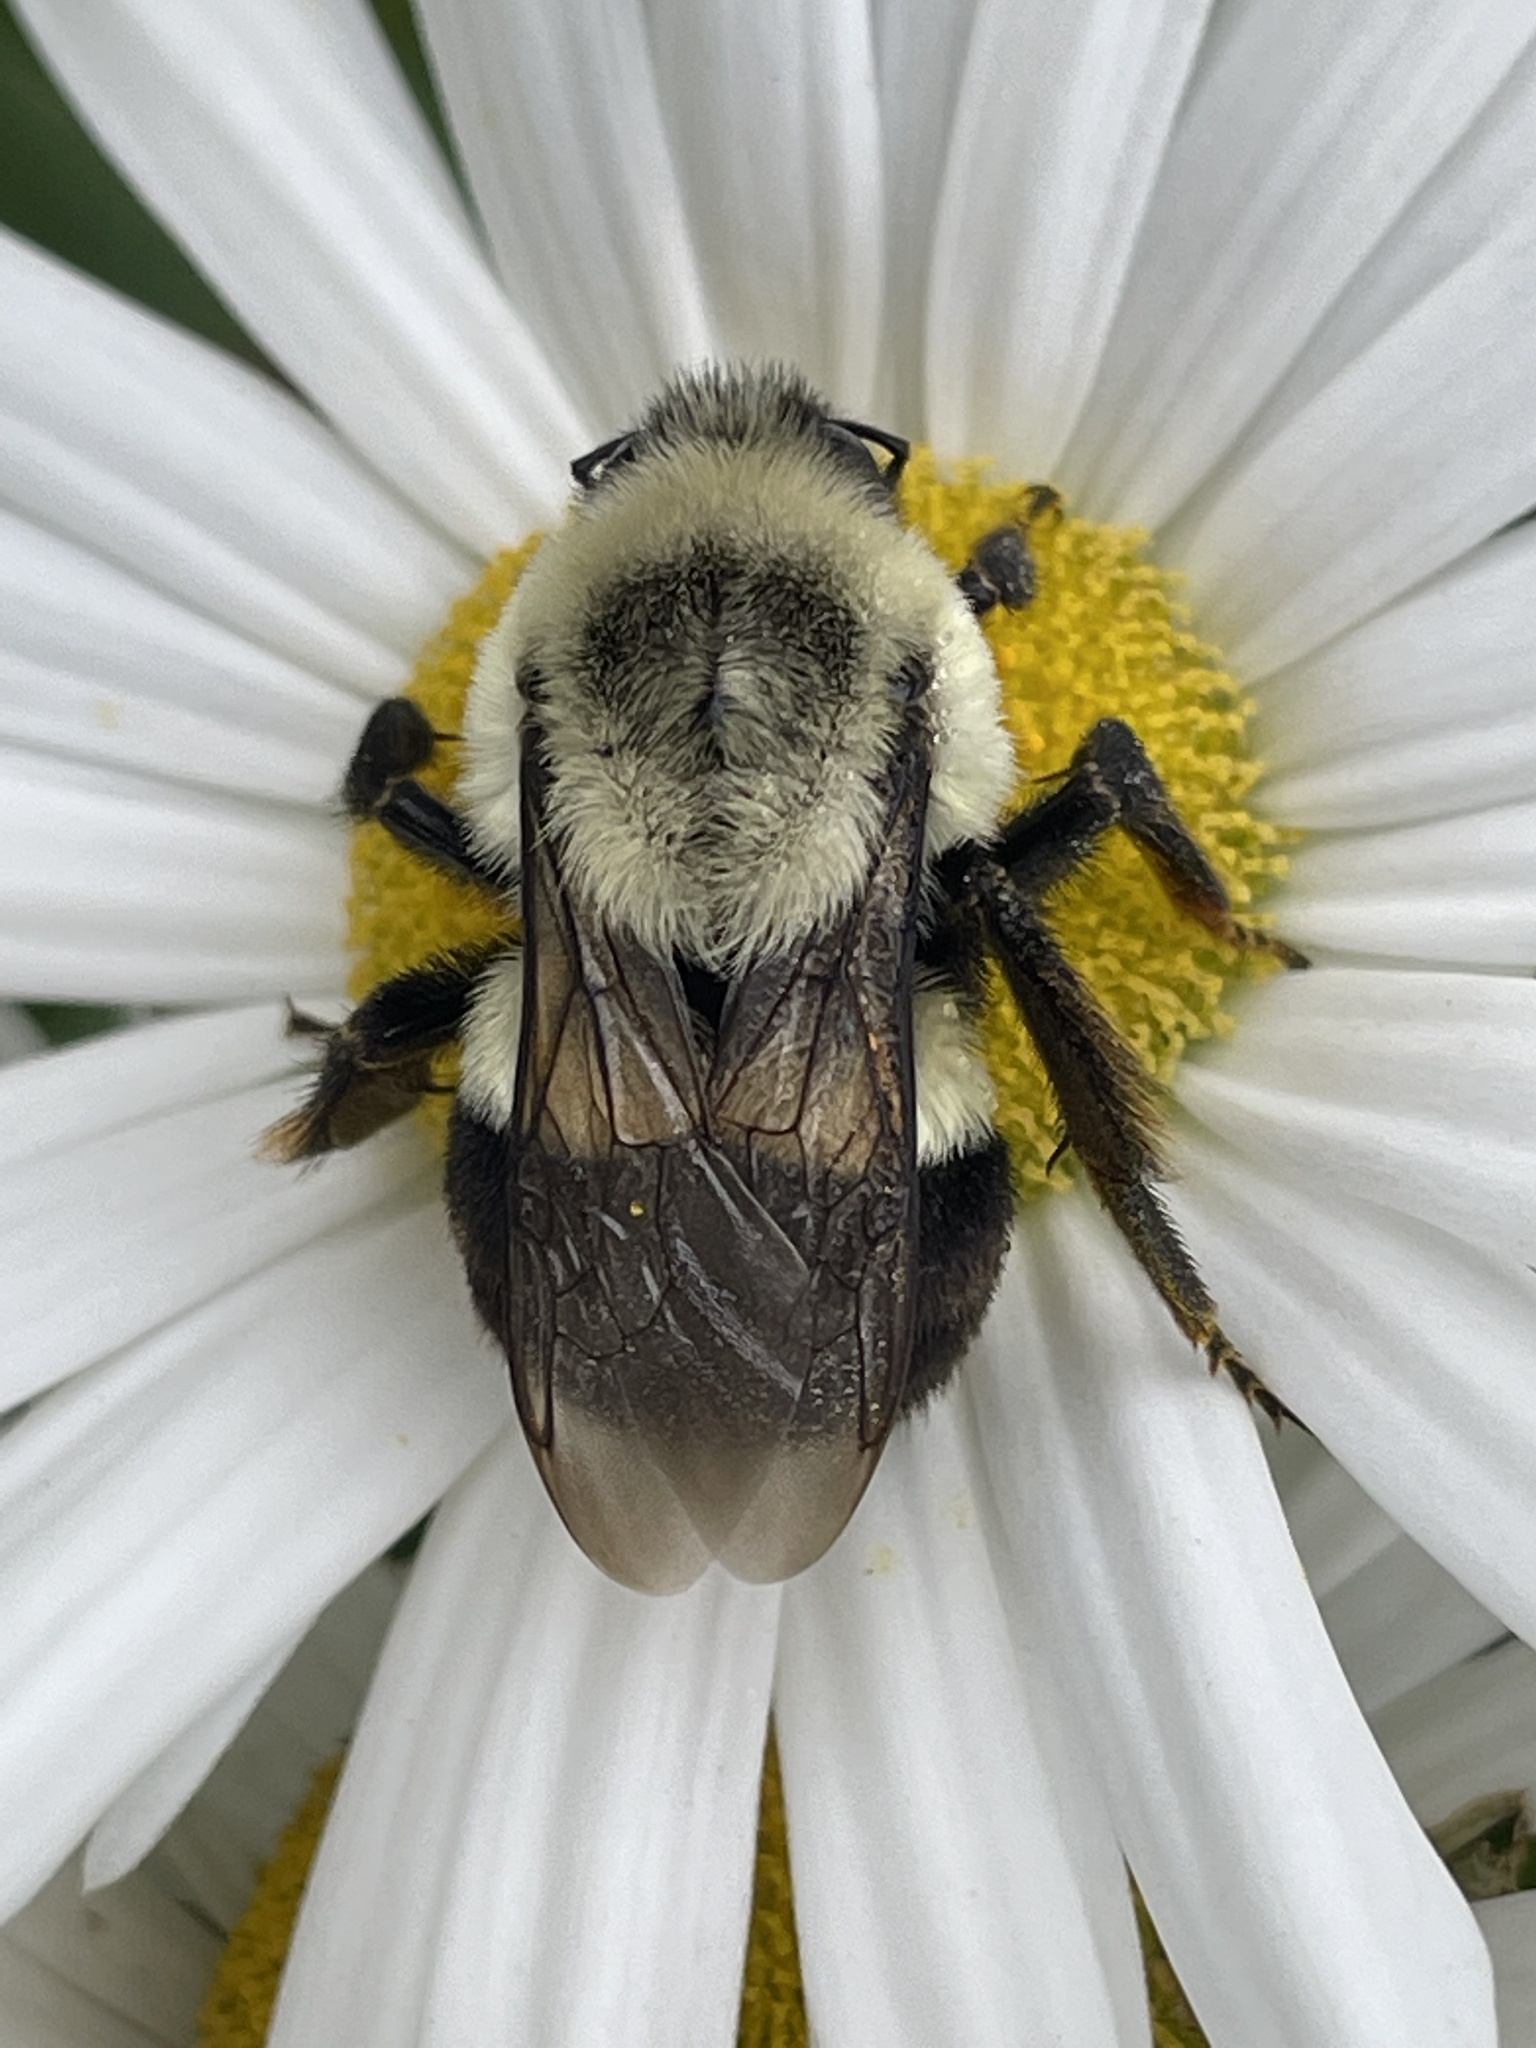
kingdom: Animalia
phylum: Arthropoda
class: Insecta
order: Hymenoptera
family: Apidae
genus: Bombus
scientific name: Bombus impatiens
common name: Common eastern bumble bee
